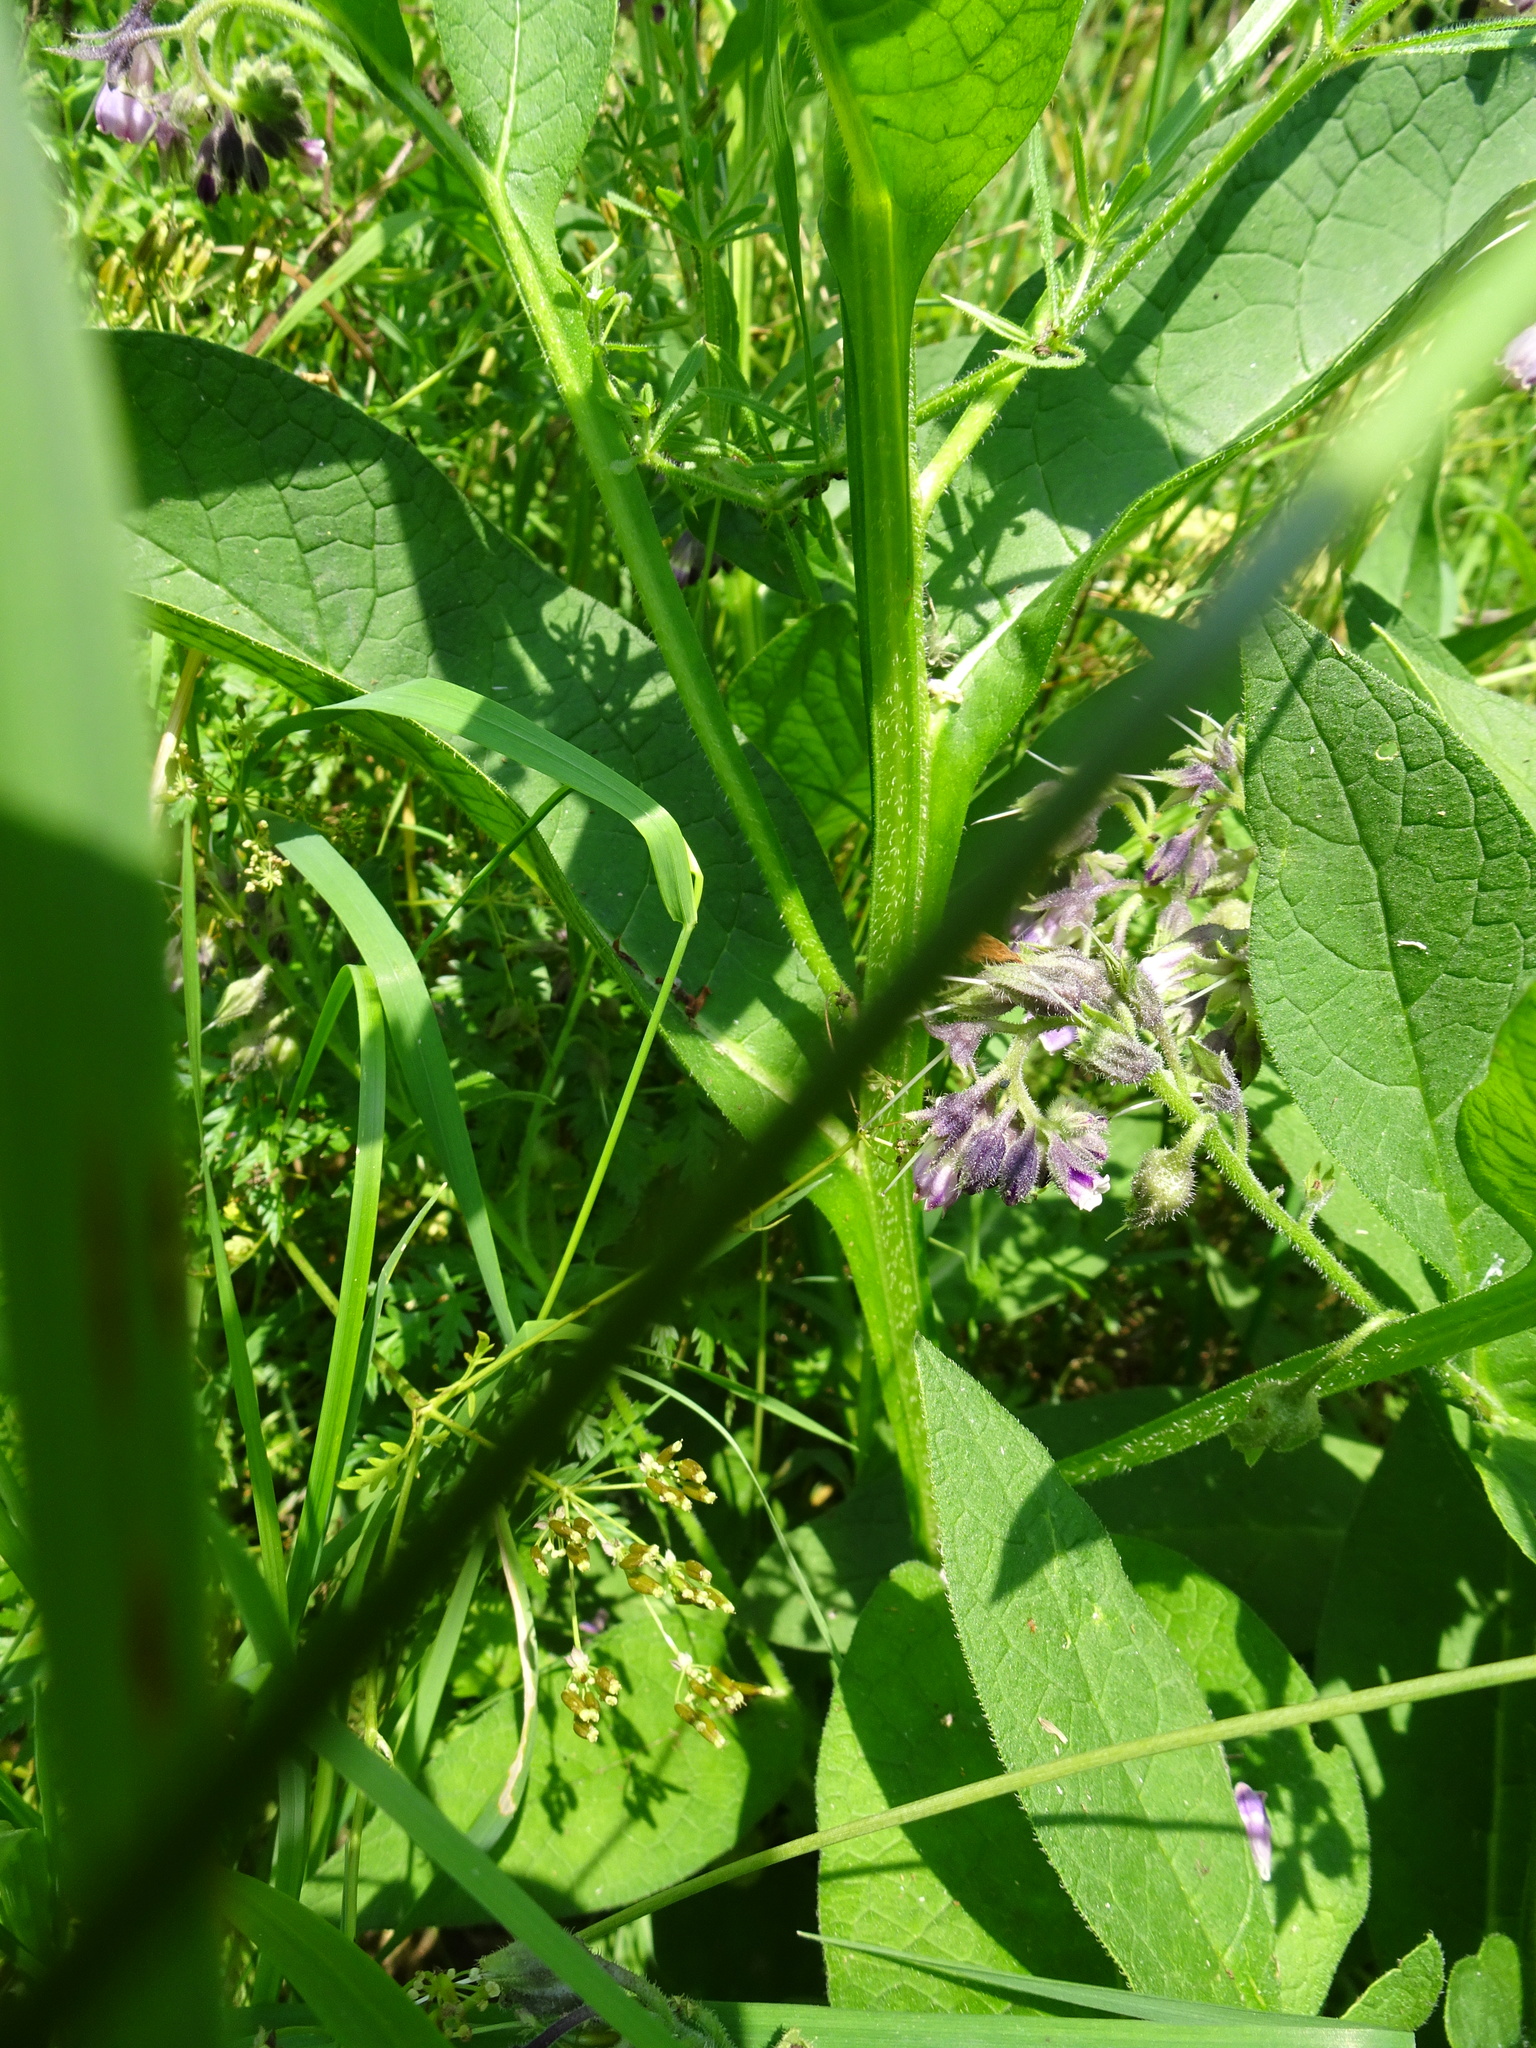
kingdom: Plantae
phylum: Tracheophyta
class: Magnoliopsida
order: Boraginales
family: Boraginaceae
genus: Symphytum
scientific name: Symphytum officinale
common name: Common comfrey
